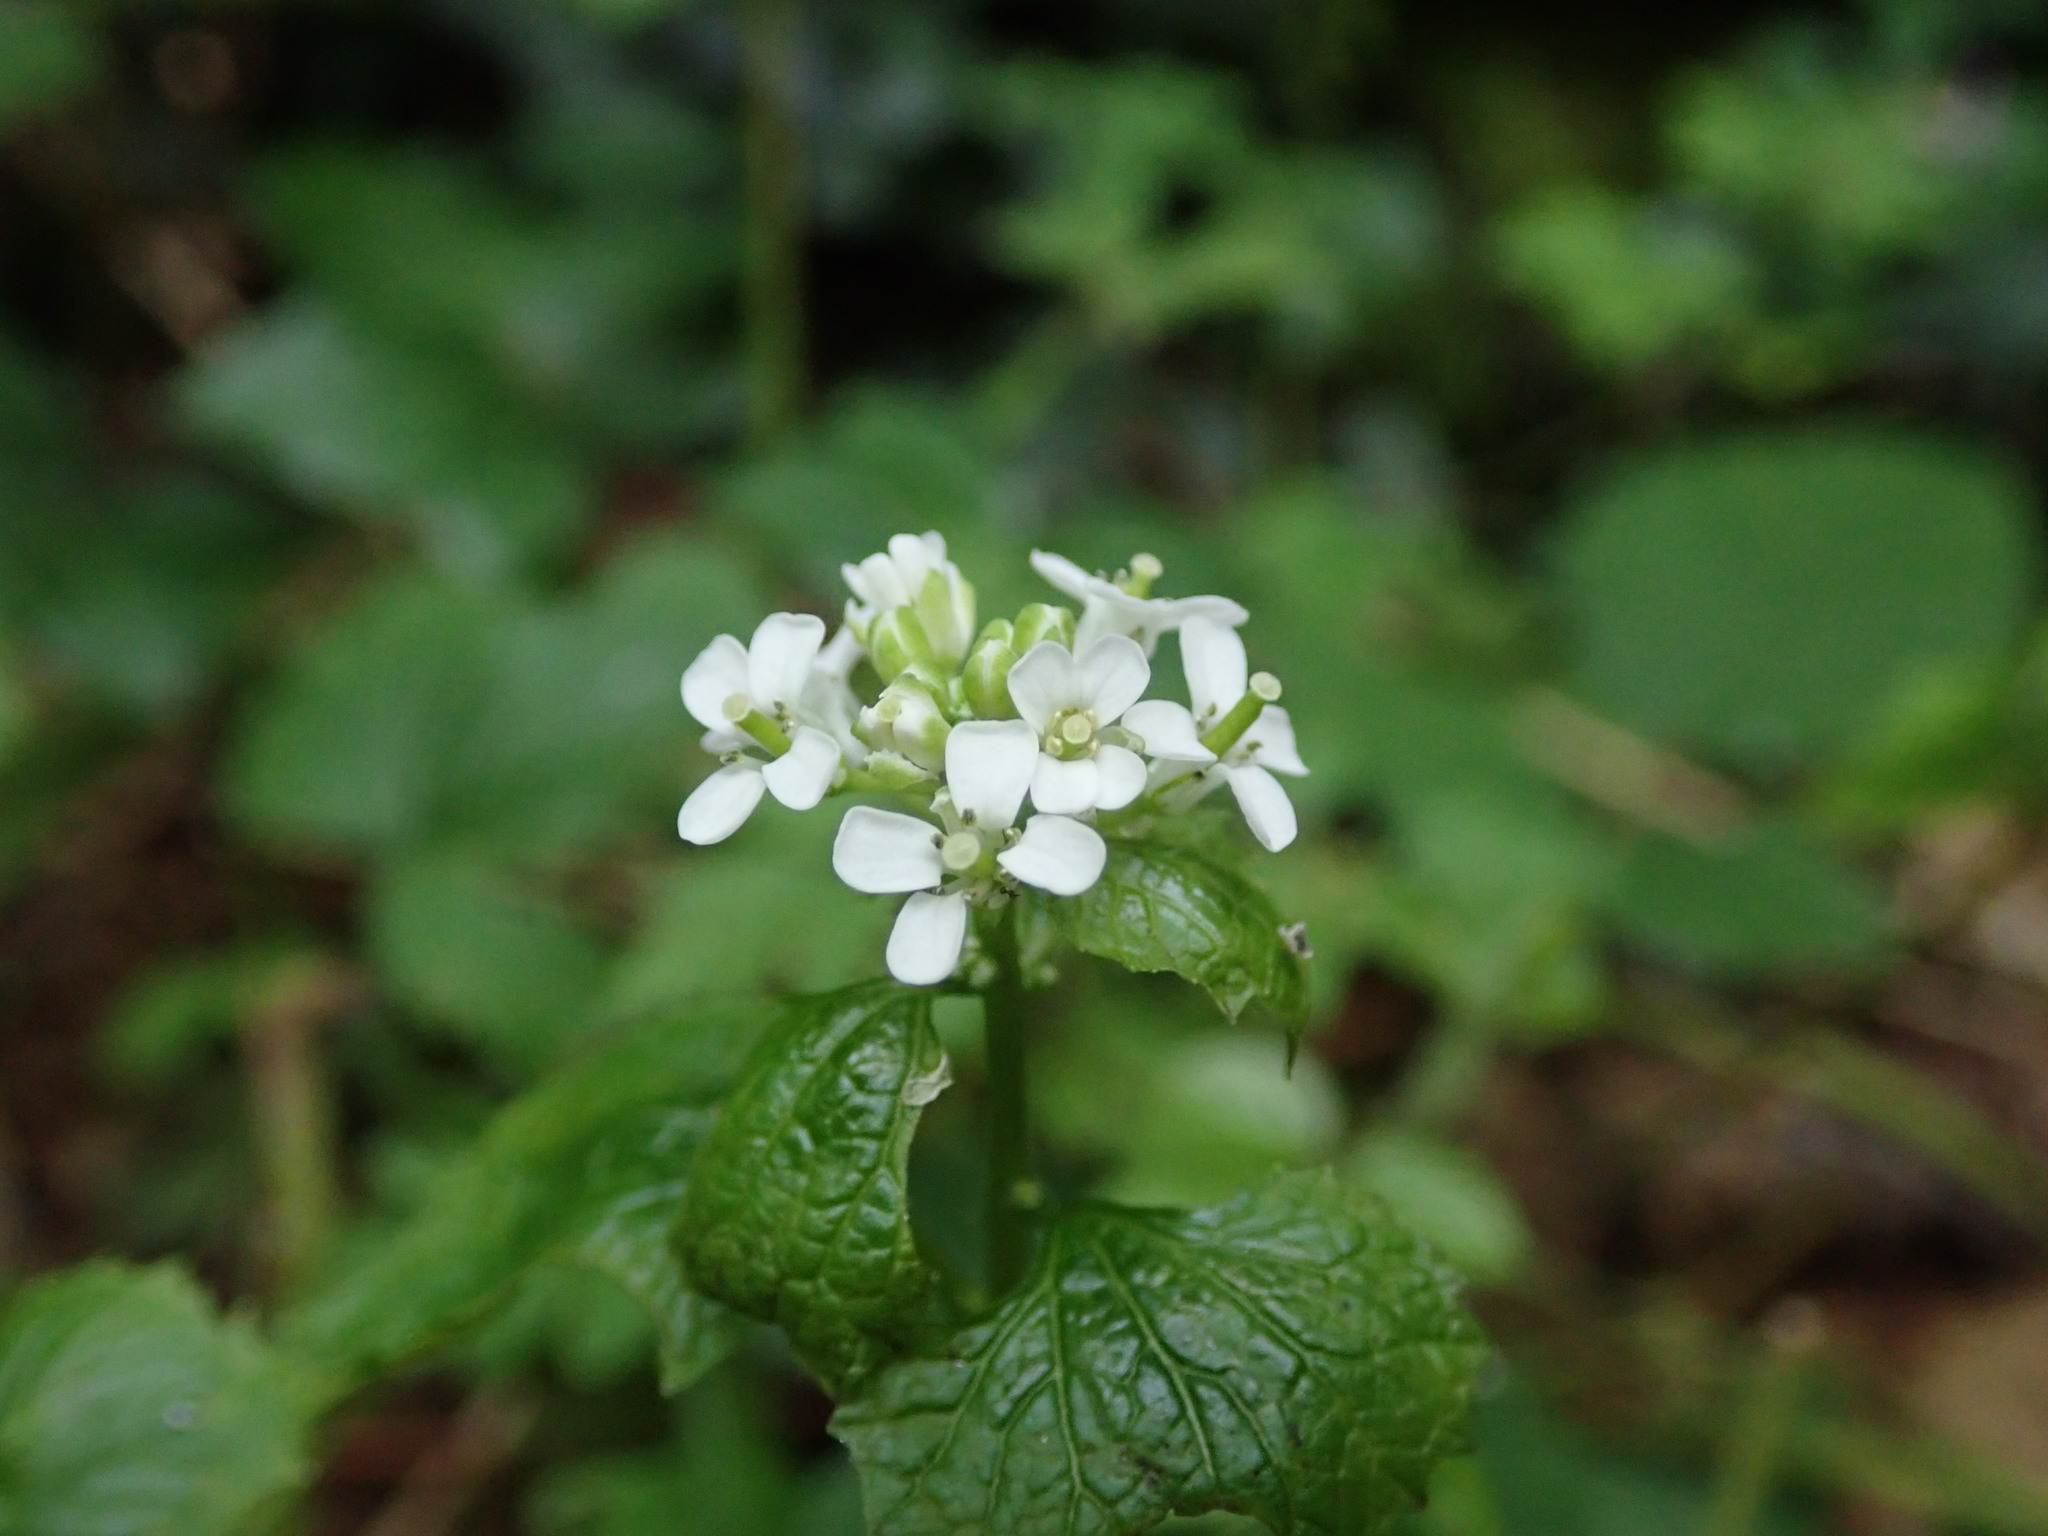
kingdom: Plantae
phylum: Tracheophyta
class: Magnoliopsida
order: Brassicales
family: Brassicaceae
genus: Alliaria
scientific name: Alliaria petiolata
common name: Garlic mustard
